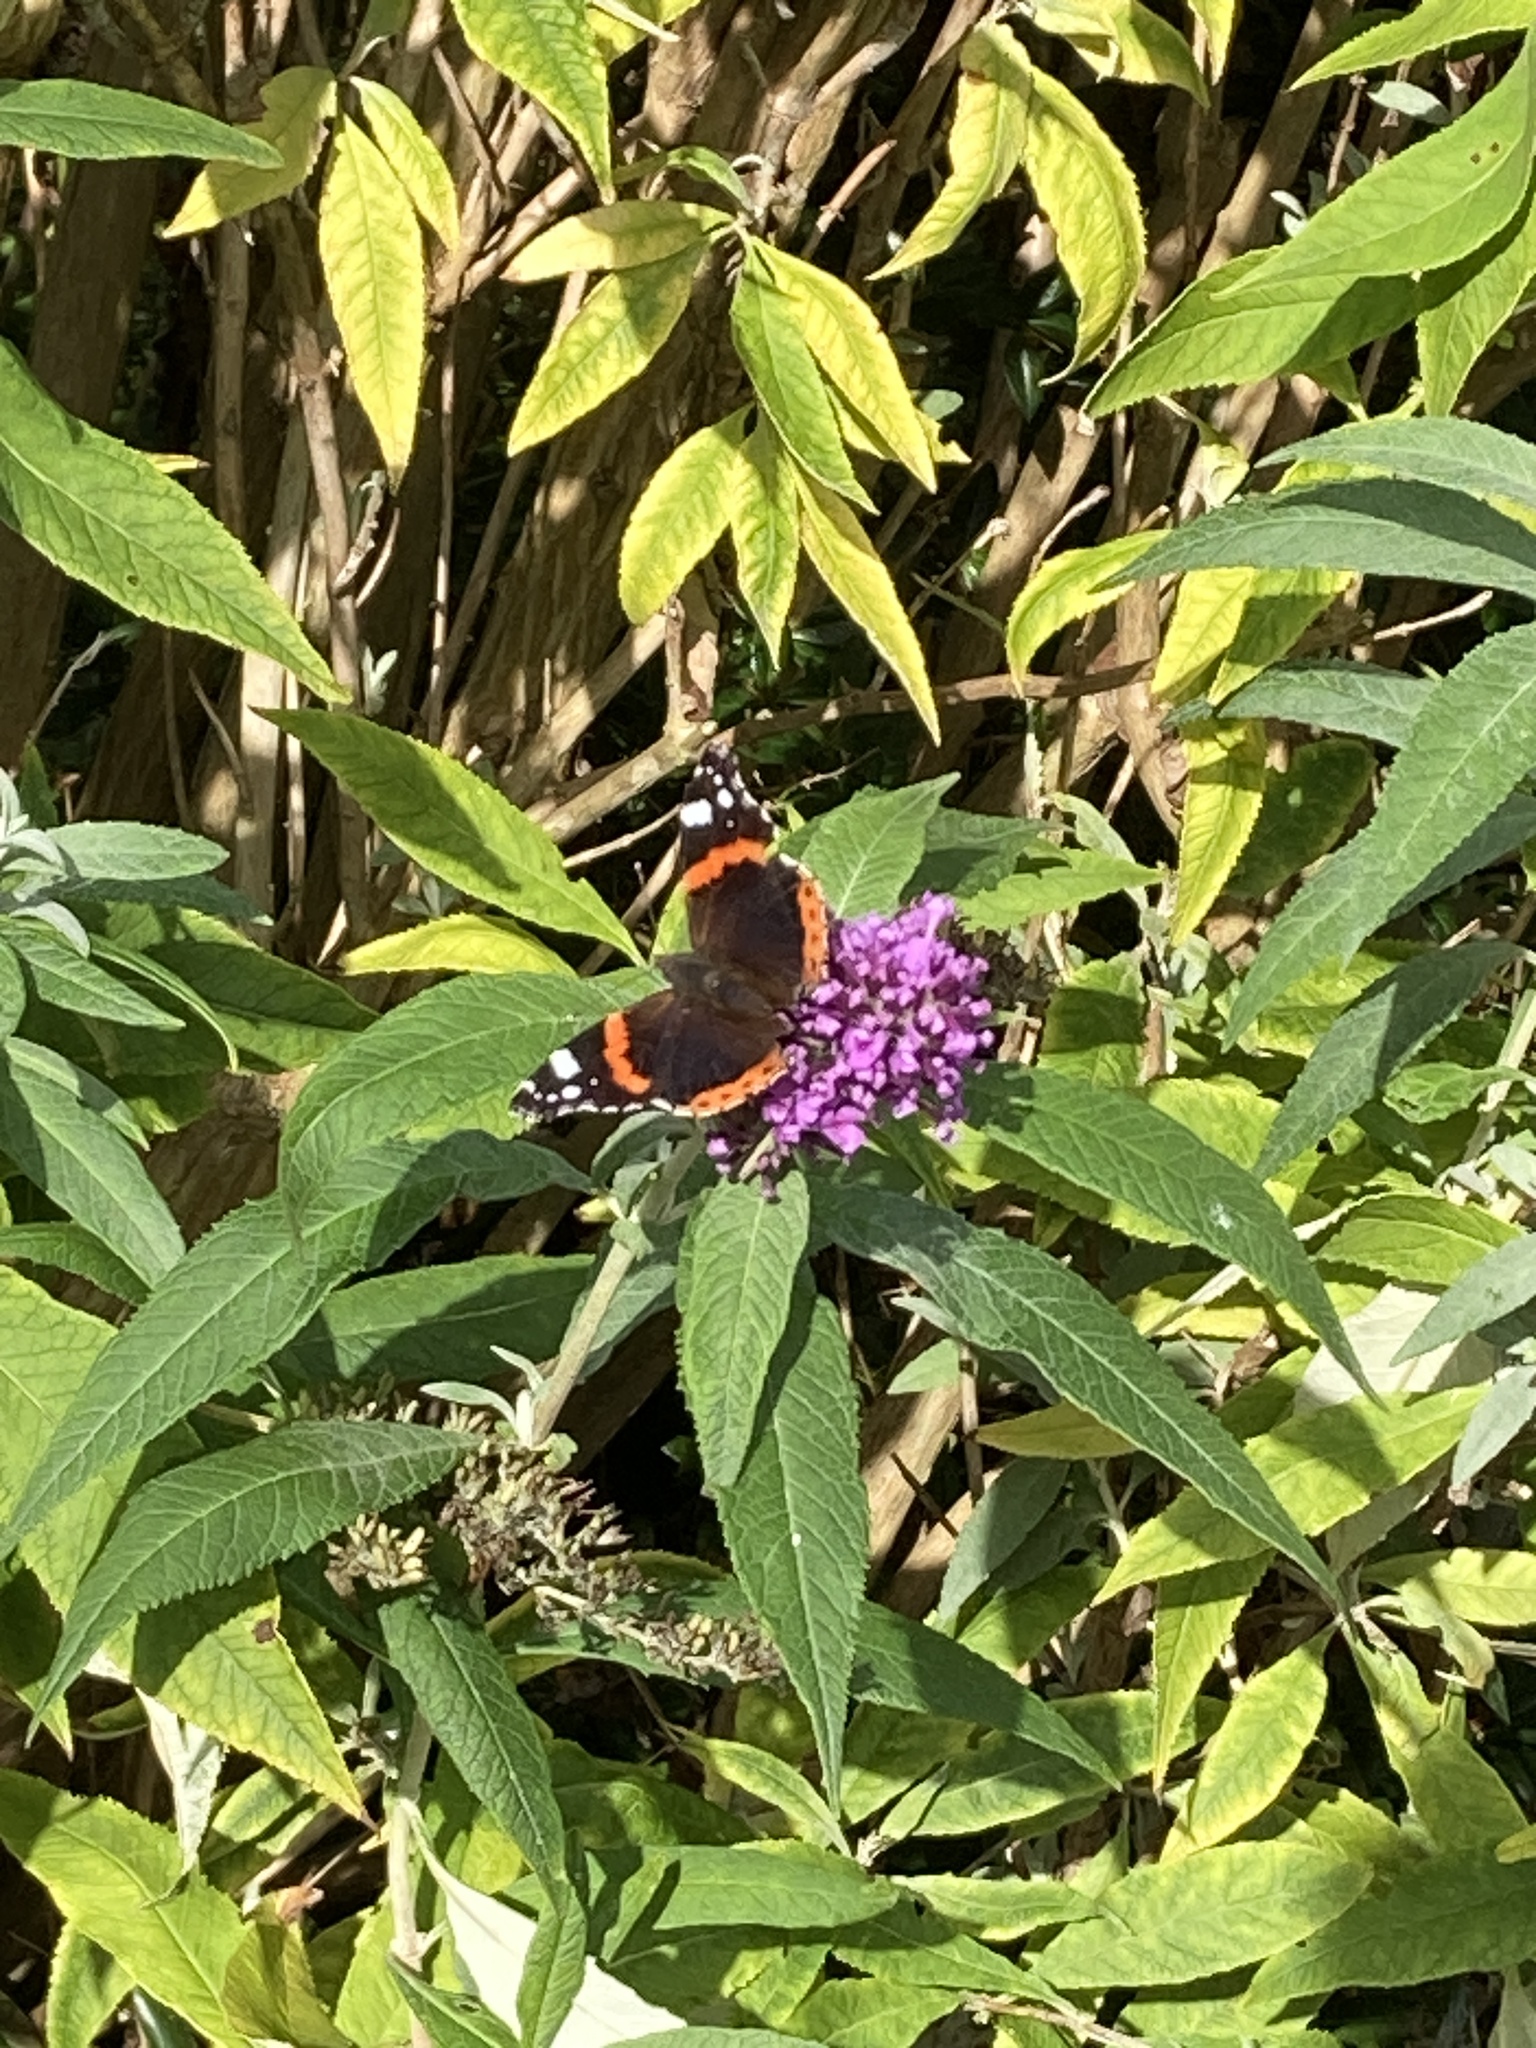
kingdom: Animalia
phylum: Arthropoda
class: Insecta
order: Lepidoptera
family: Nymphalidae
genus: Vanessa
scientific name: Vanessa atalanta
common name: Red admiral
